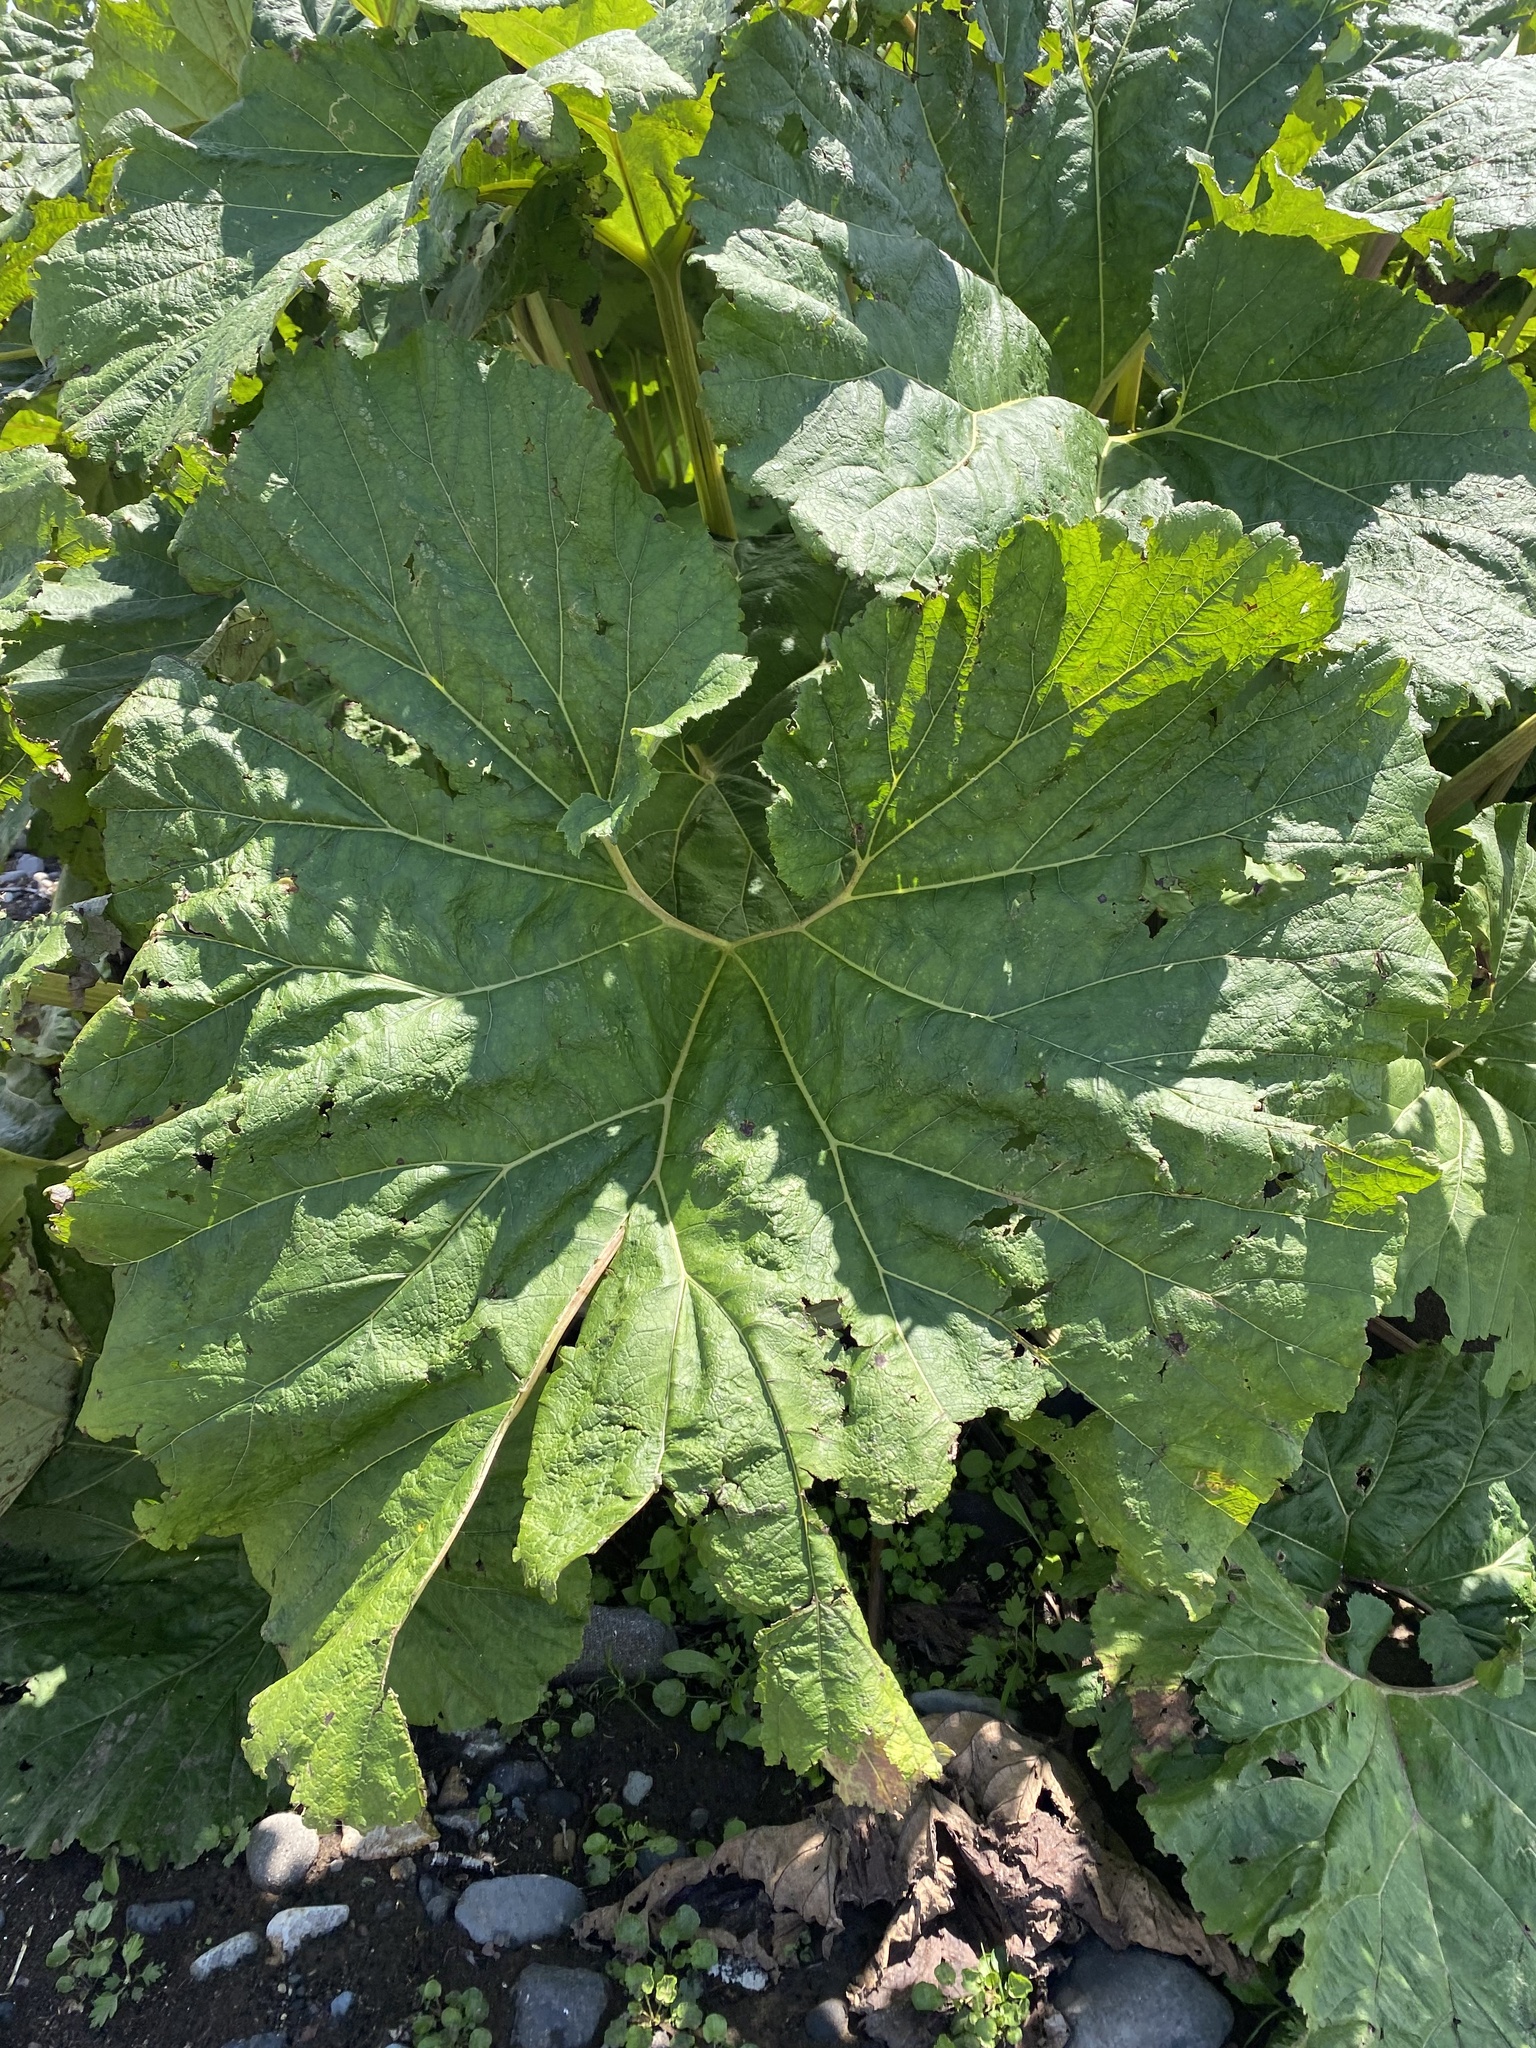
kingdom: Plantae
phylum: Tracheophyta
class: Magnoliopsida
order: Asterales
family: Asteraceae
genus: Petasites
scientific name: Petasites japonicus
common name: Giant butterbur
